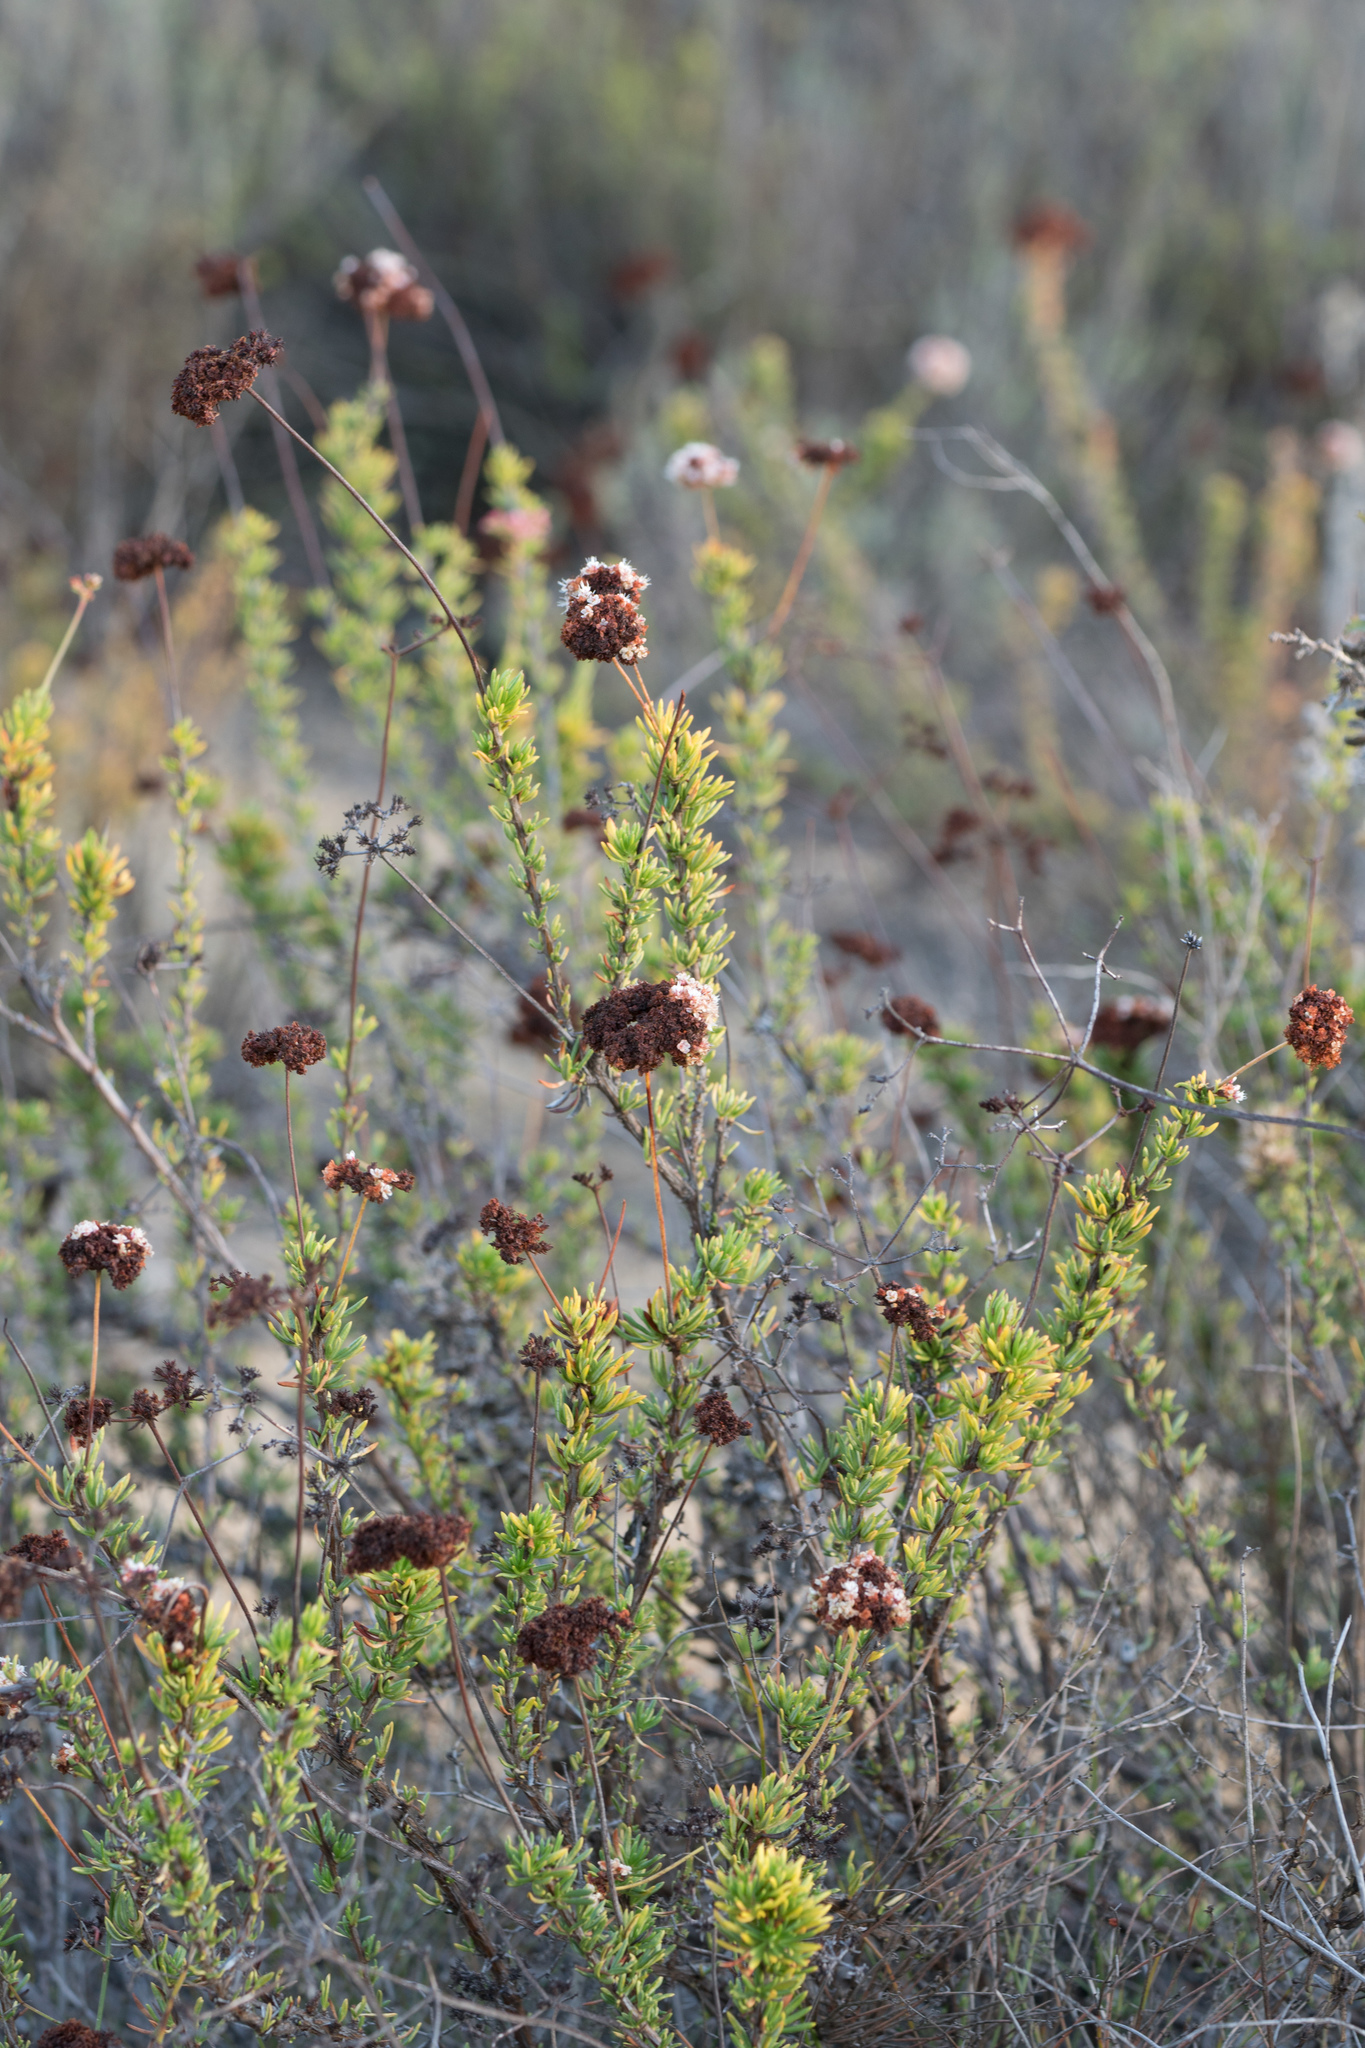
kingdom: Plantae
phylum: Tracheophyta
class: Magnoliopsida
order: Caryophyllales
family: Polygonaceae
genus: Eriogonum
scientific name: Eriogonum fasciculatum
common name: California wild buckwheat
